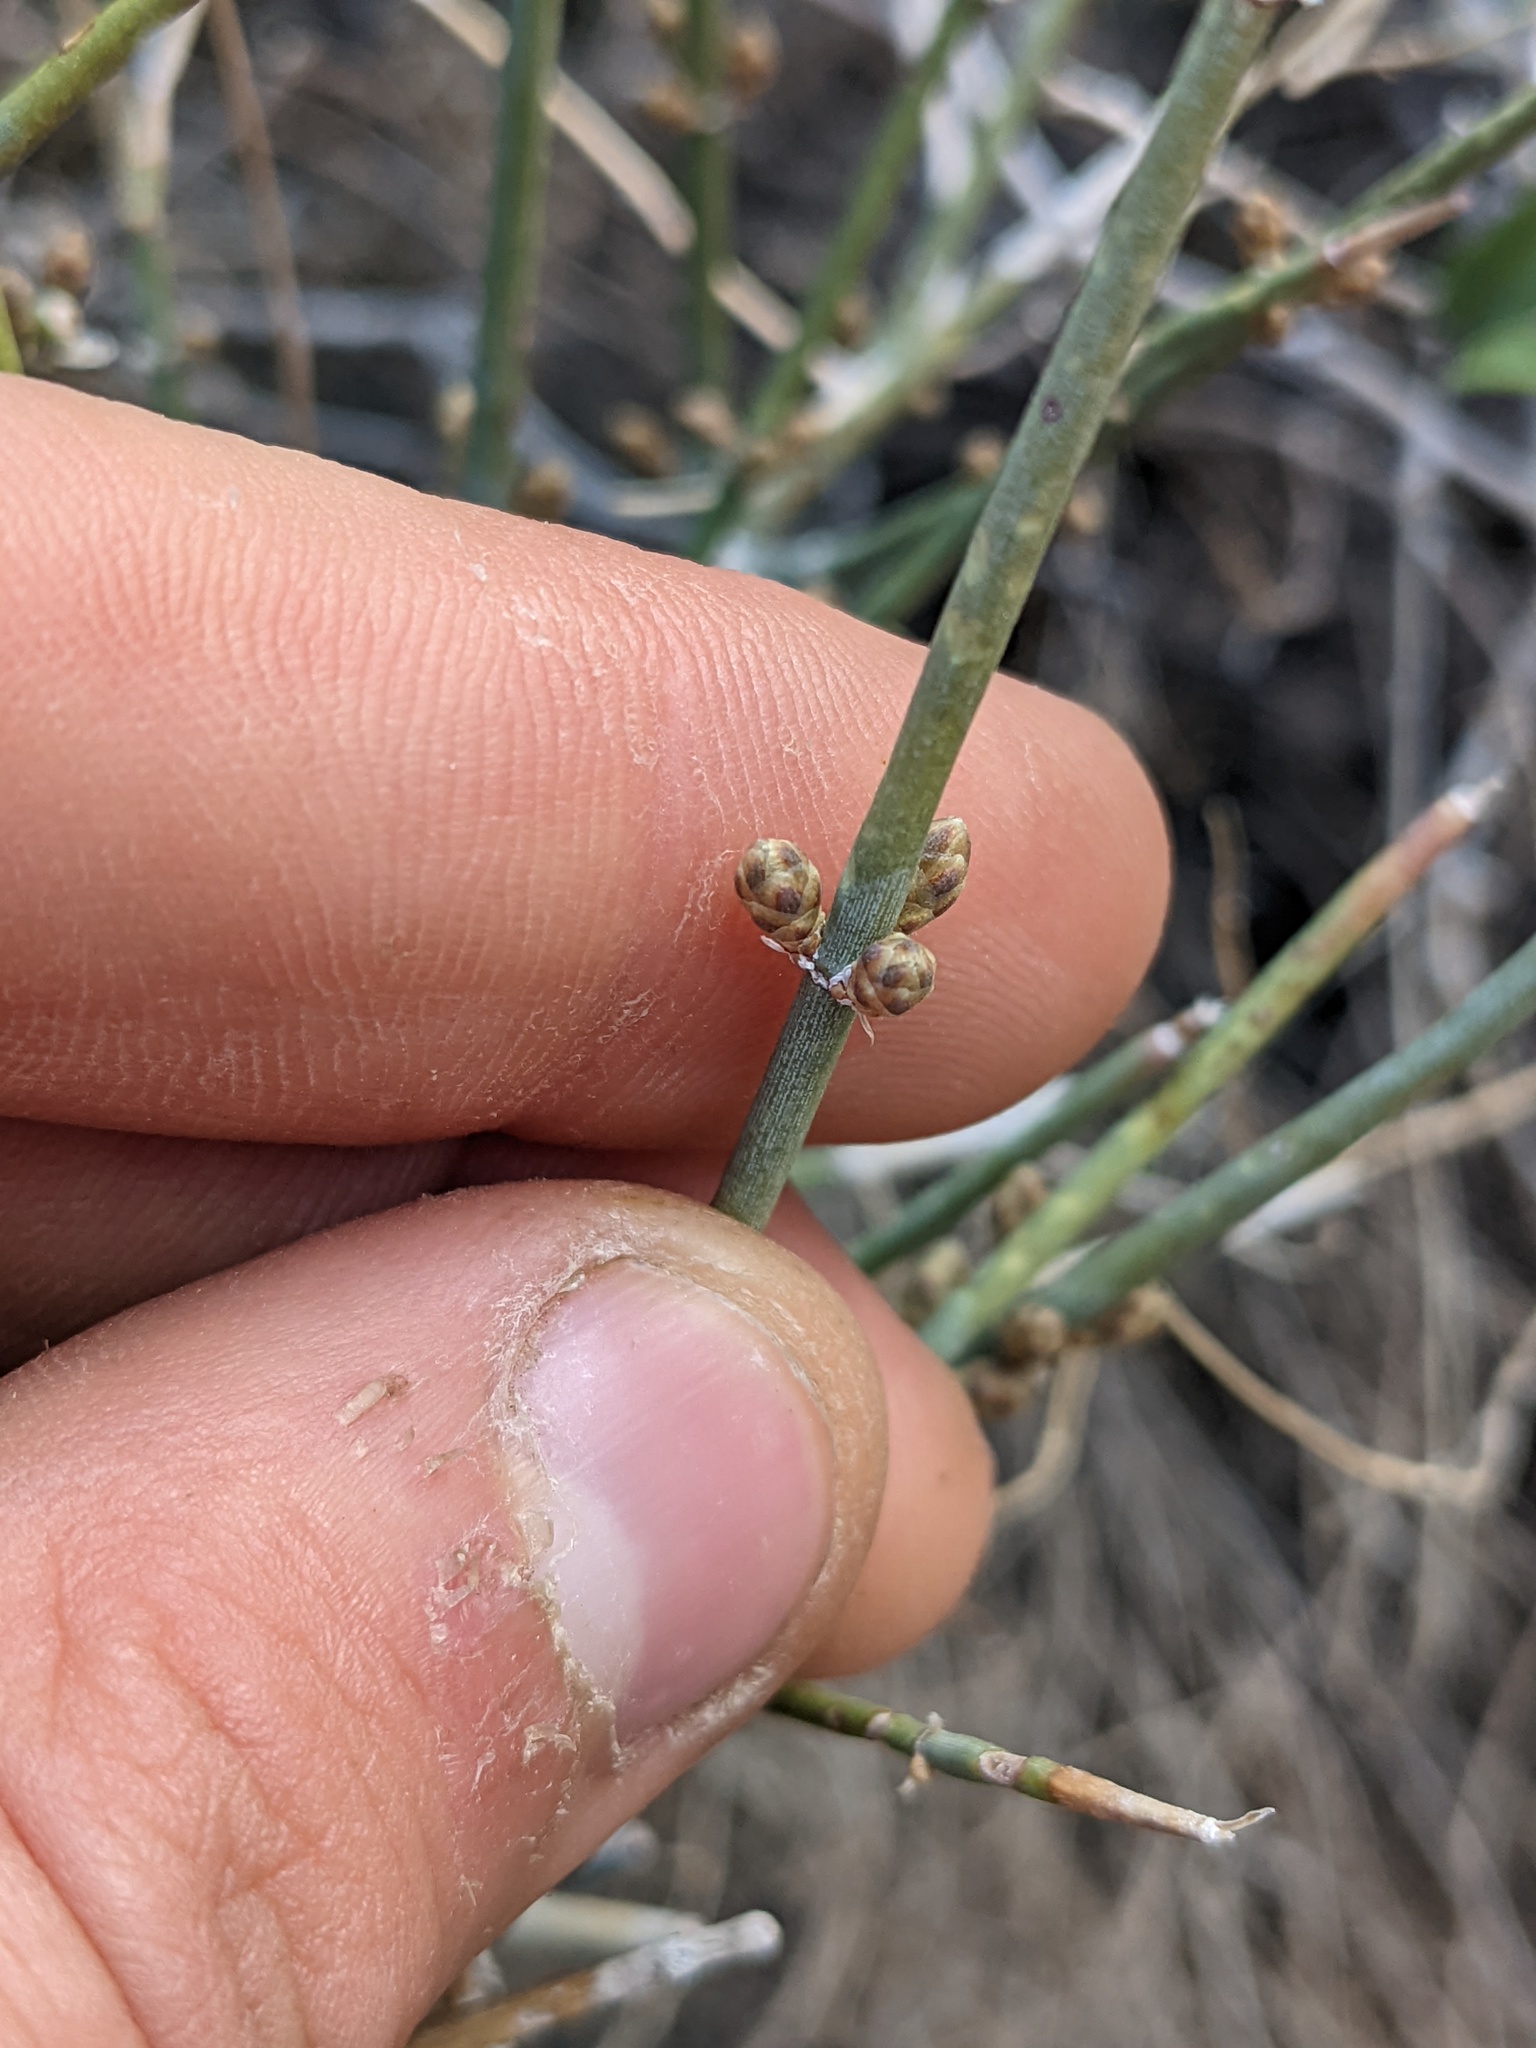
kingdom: Plantae
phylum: Tracheophyta
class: Gnetopsida
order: Ephedrales
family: Ephedraceae
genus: Ephedra
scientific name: Ephedra torreyana
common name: Torrey ephedra
